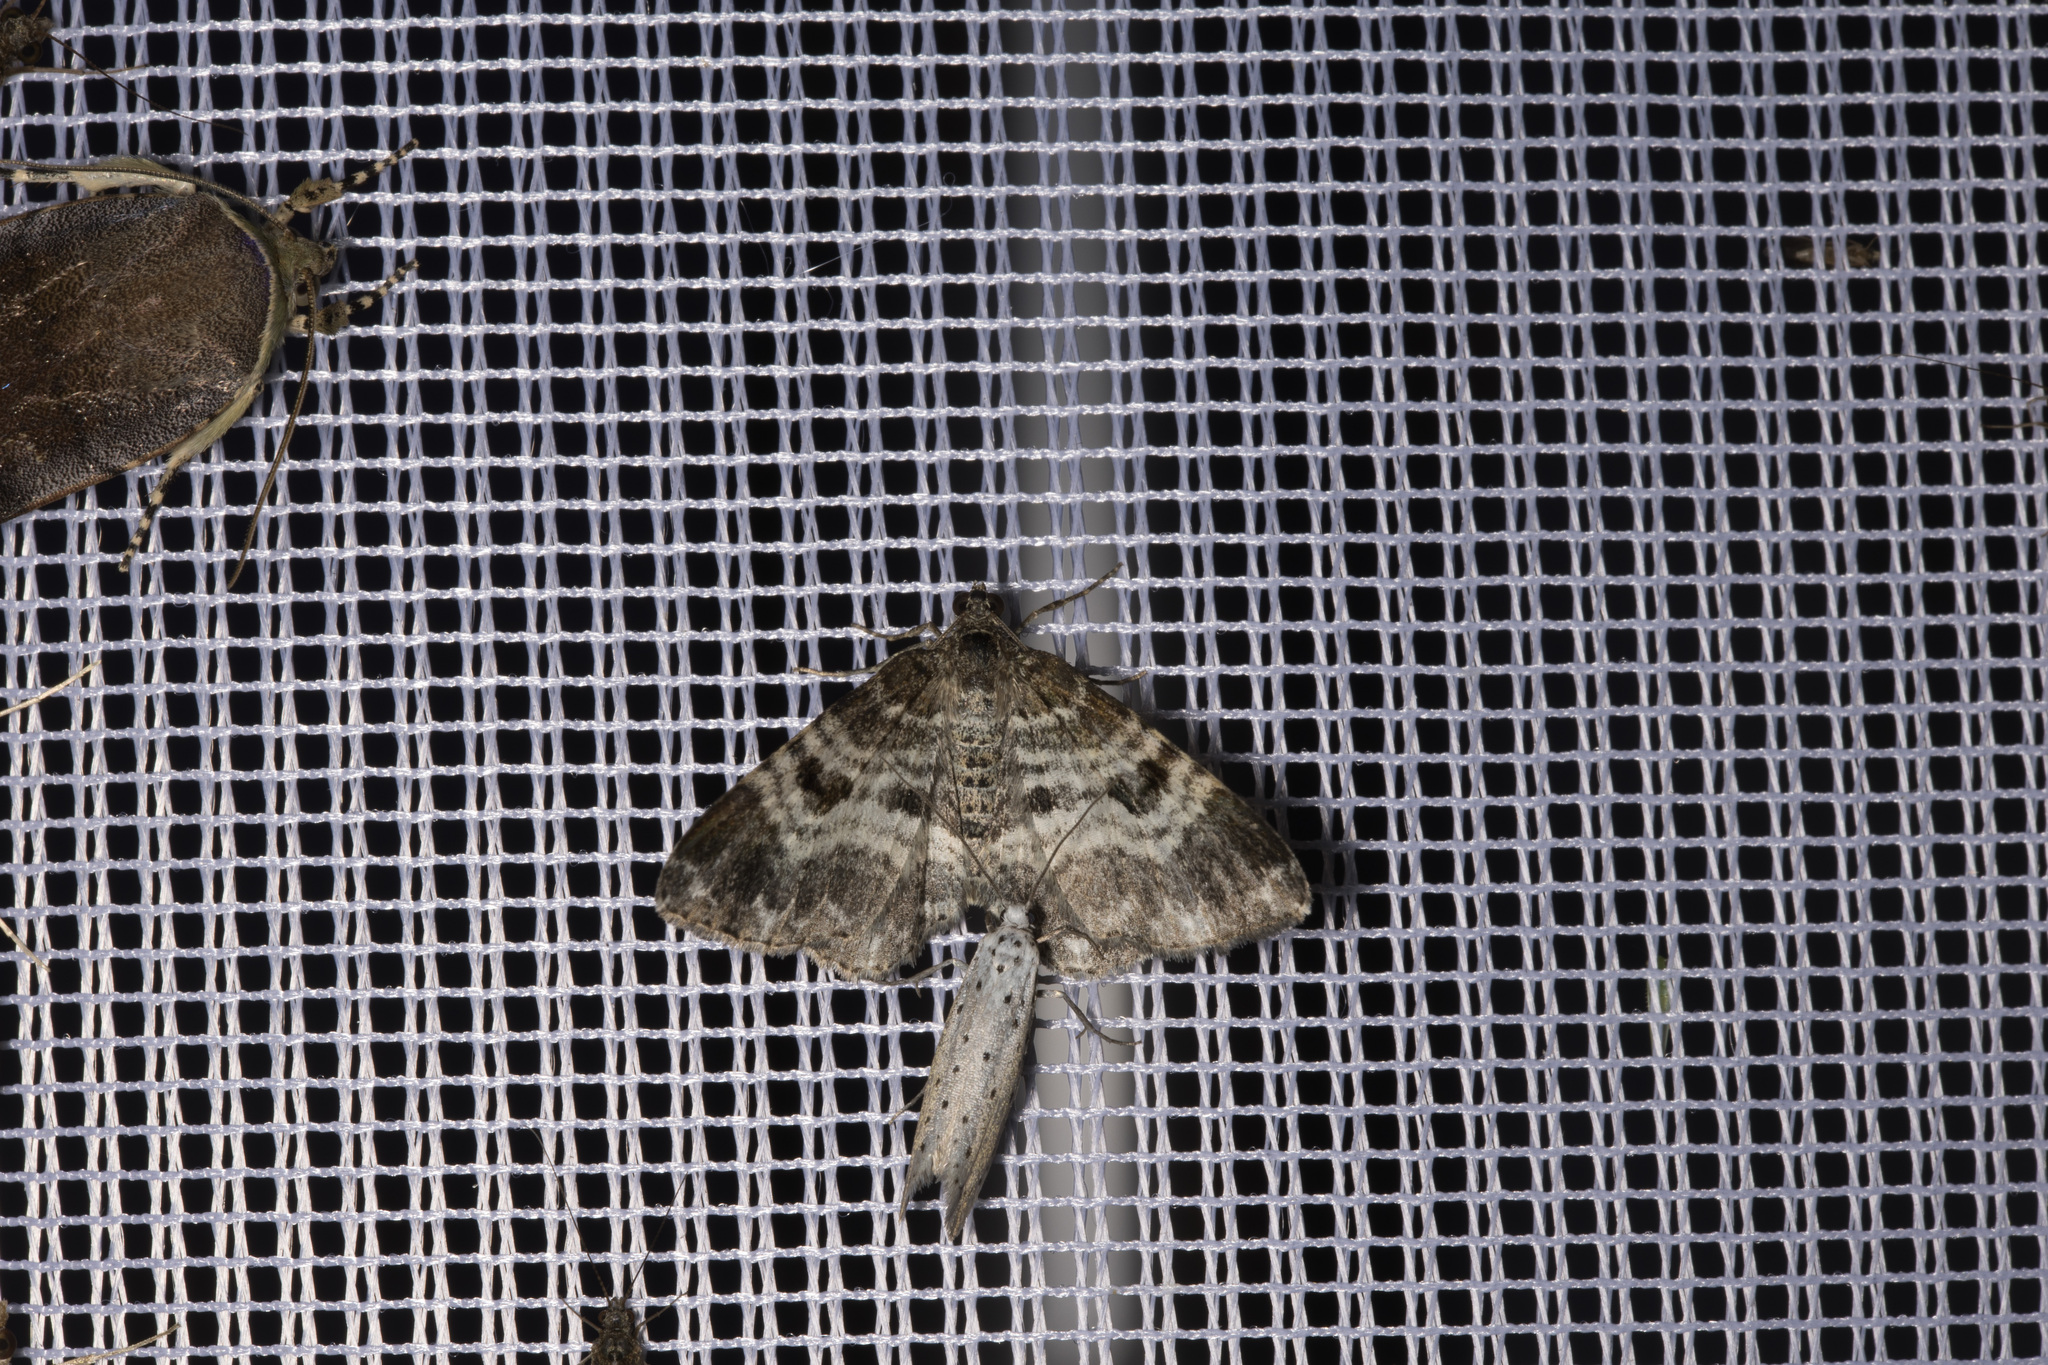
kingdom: Animalia
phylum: Arthropoda
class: Insecta
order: Lepidoptera
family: Geometridae
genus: Epirrhoe
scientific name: Epirrhoe alternata
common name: Common carpet
